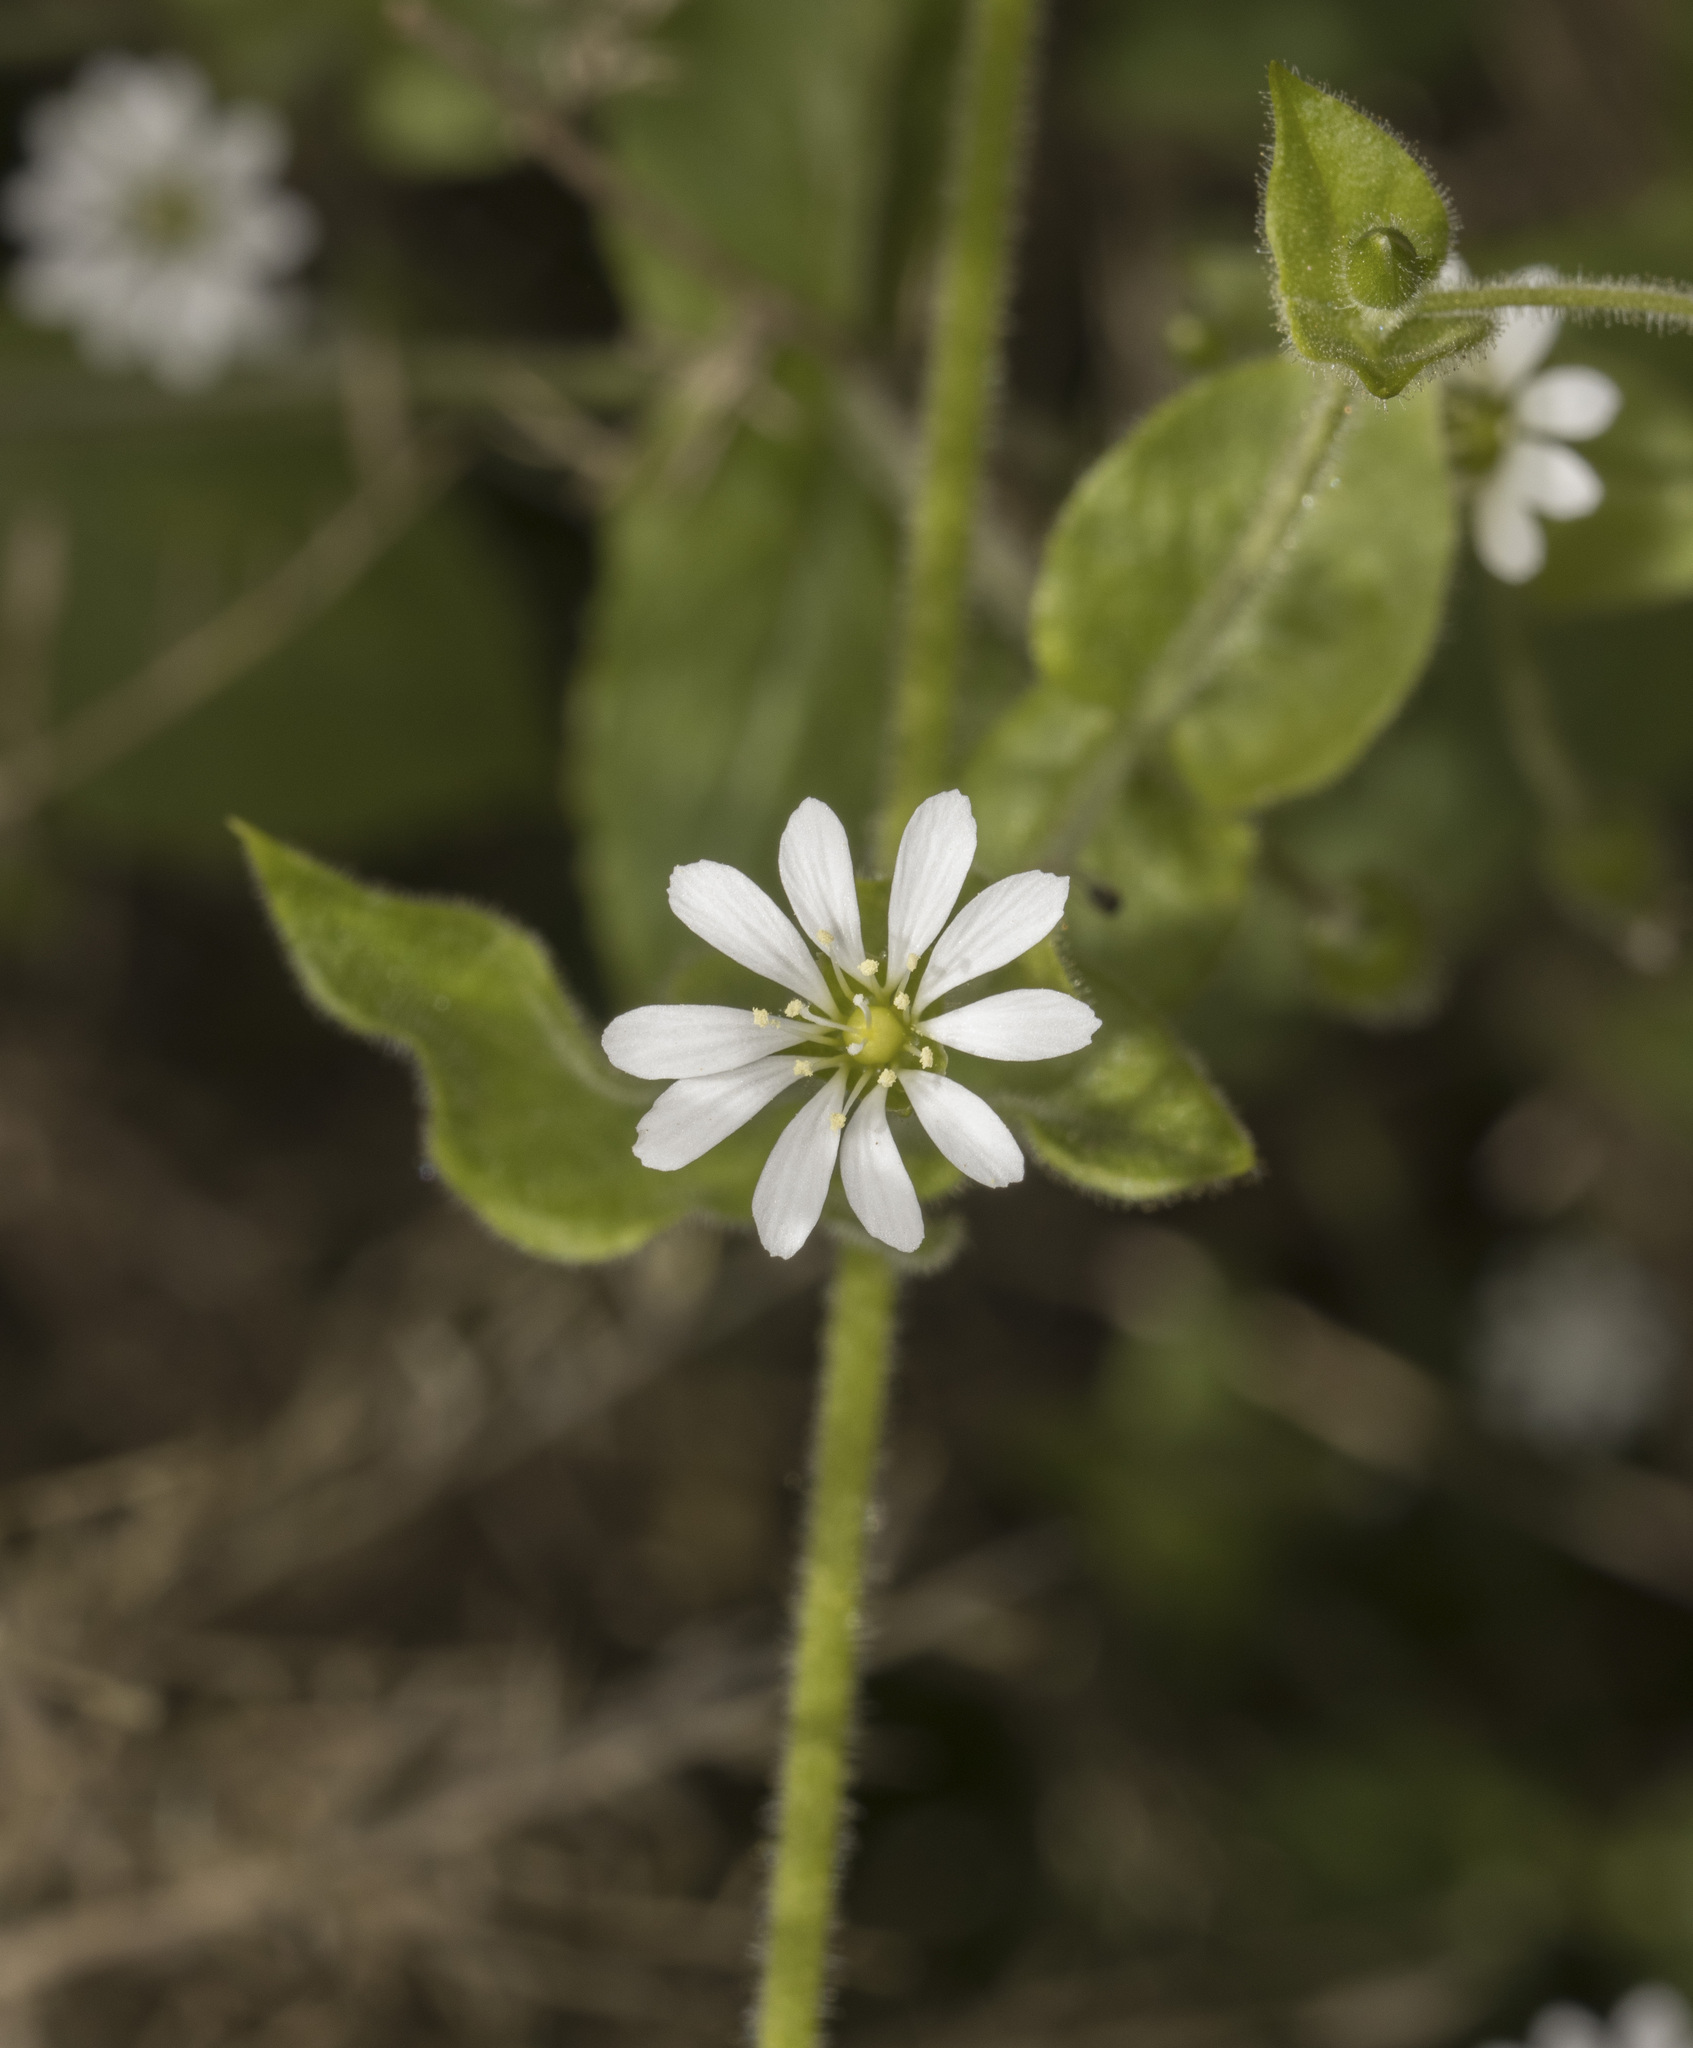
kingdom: Plantae
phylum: Tracheophyta
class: Magnoliopsida
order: Caryophyllales
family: Caryophyllaceae
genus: Stellaria
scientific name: Stellaria chilensis
